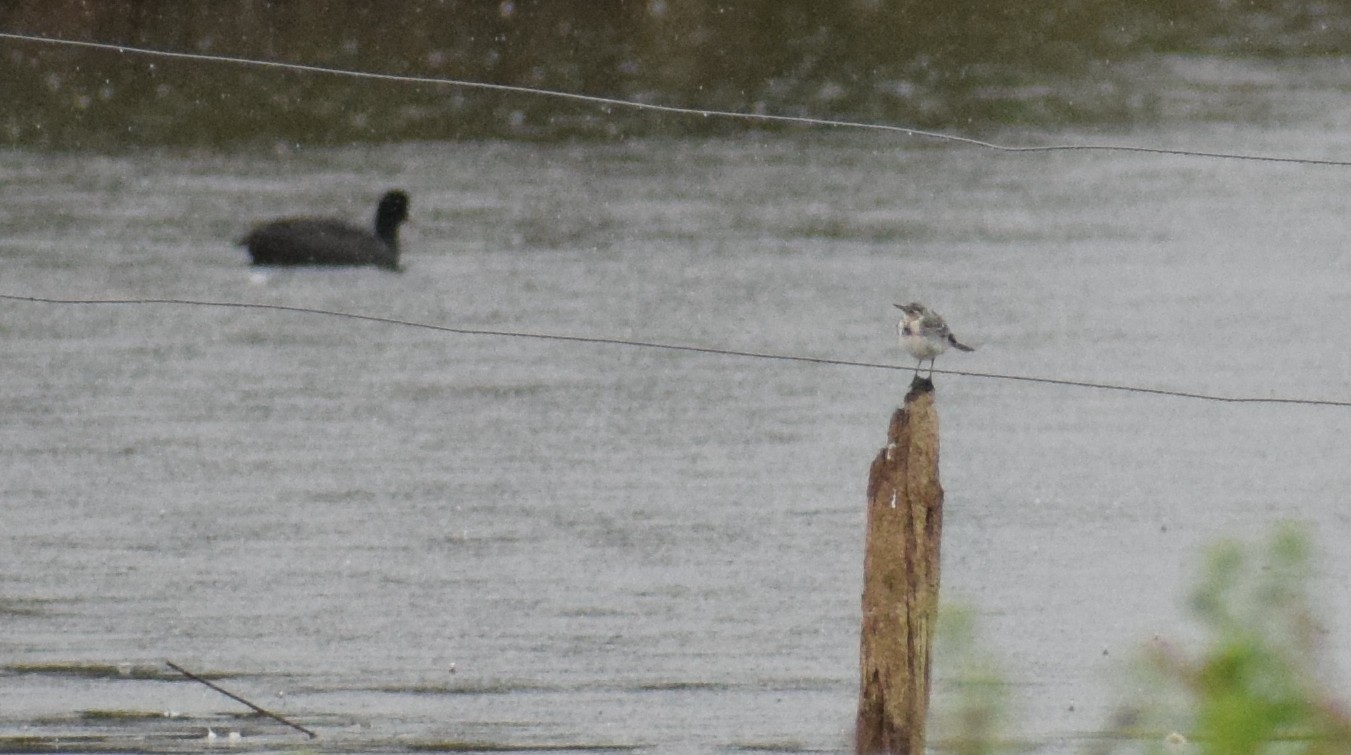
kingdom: Animalia
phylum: Chordata
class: Aves
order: Passeriformes
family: Motacillidae
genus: Motacilla
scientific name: Motacilla alba
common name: White wagtail
